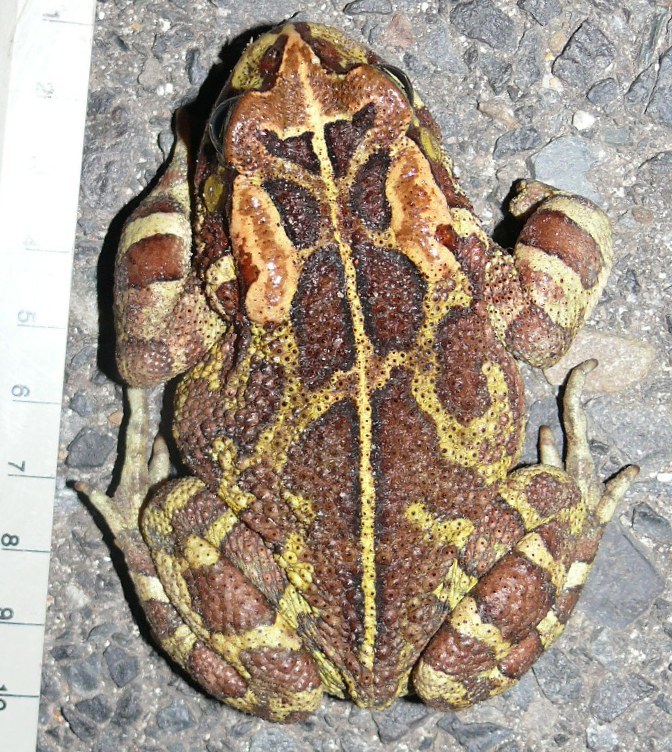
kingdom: Animalia
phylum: Chordata
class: Amphibia
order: Anura
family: Bufonidae
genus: Sclerophrys
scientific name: Sclerophrys pantherina
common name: Panther toad
